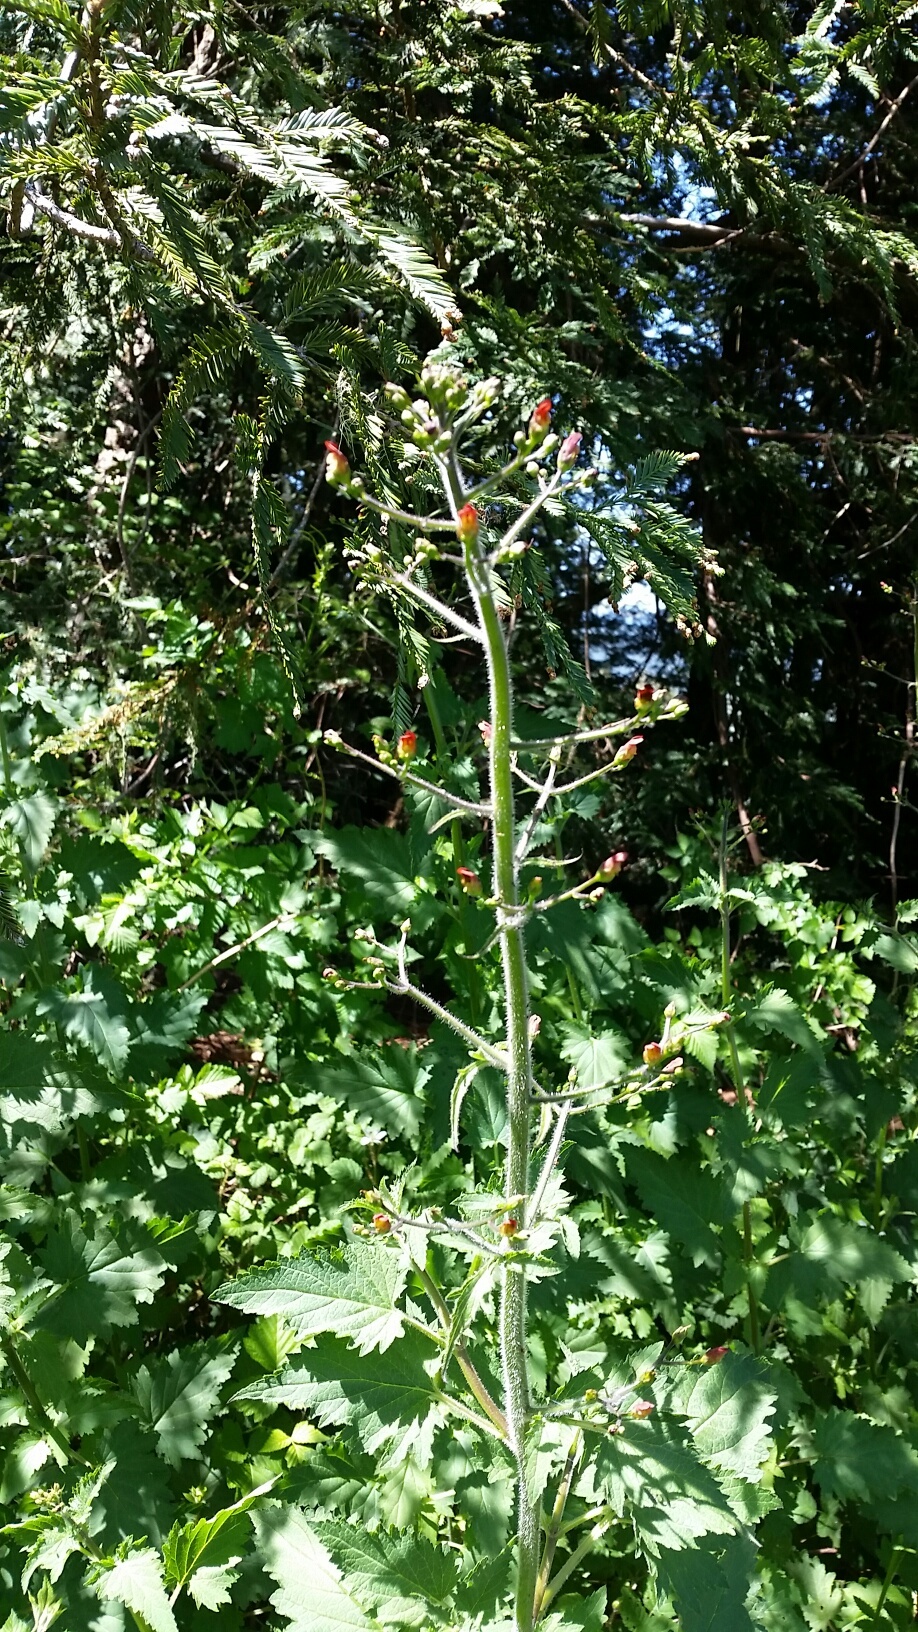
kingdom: Plantae
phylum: Tracheophyta
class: Magnoliopsida
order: Lamiales
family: Scrophulariaceae
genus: Scrophularia
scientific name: Scrophularia californica
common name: California figwort
